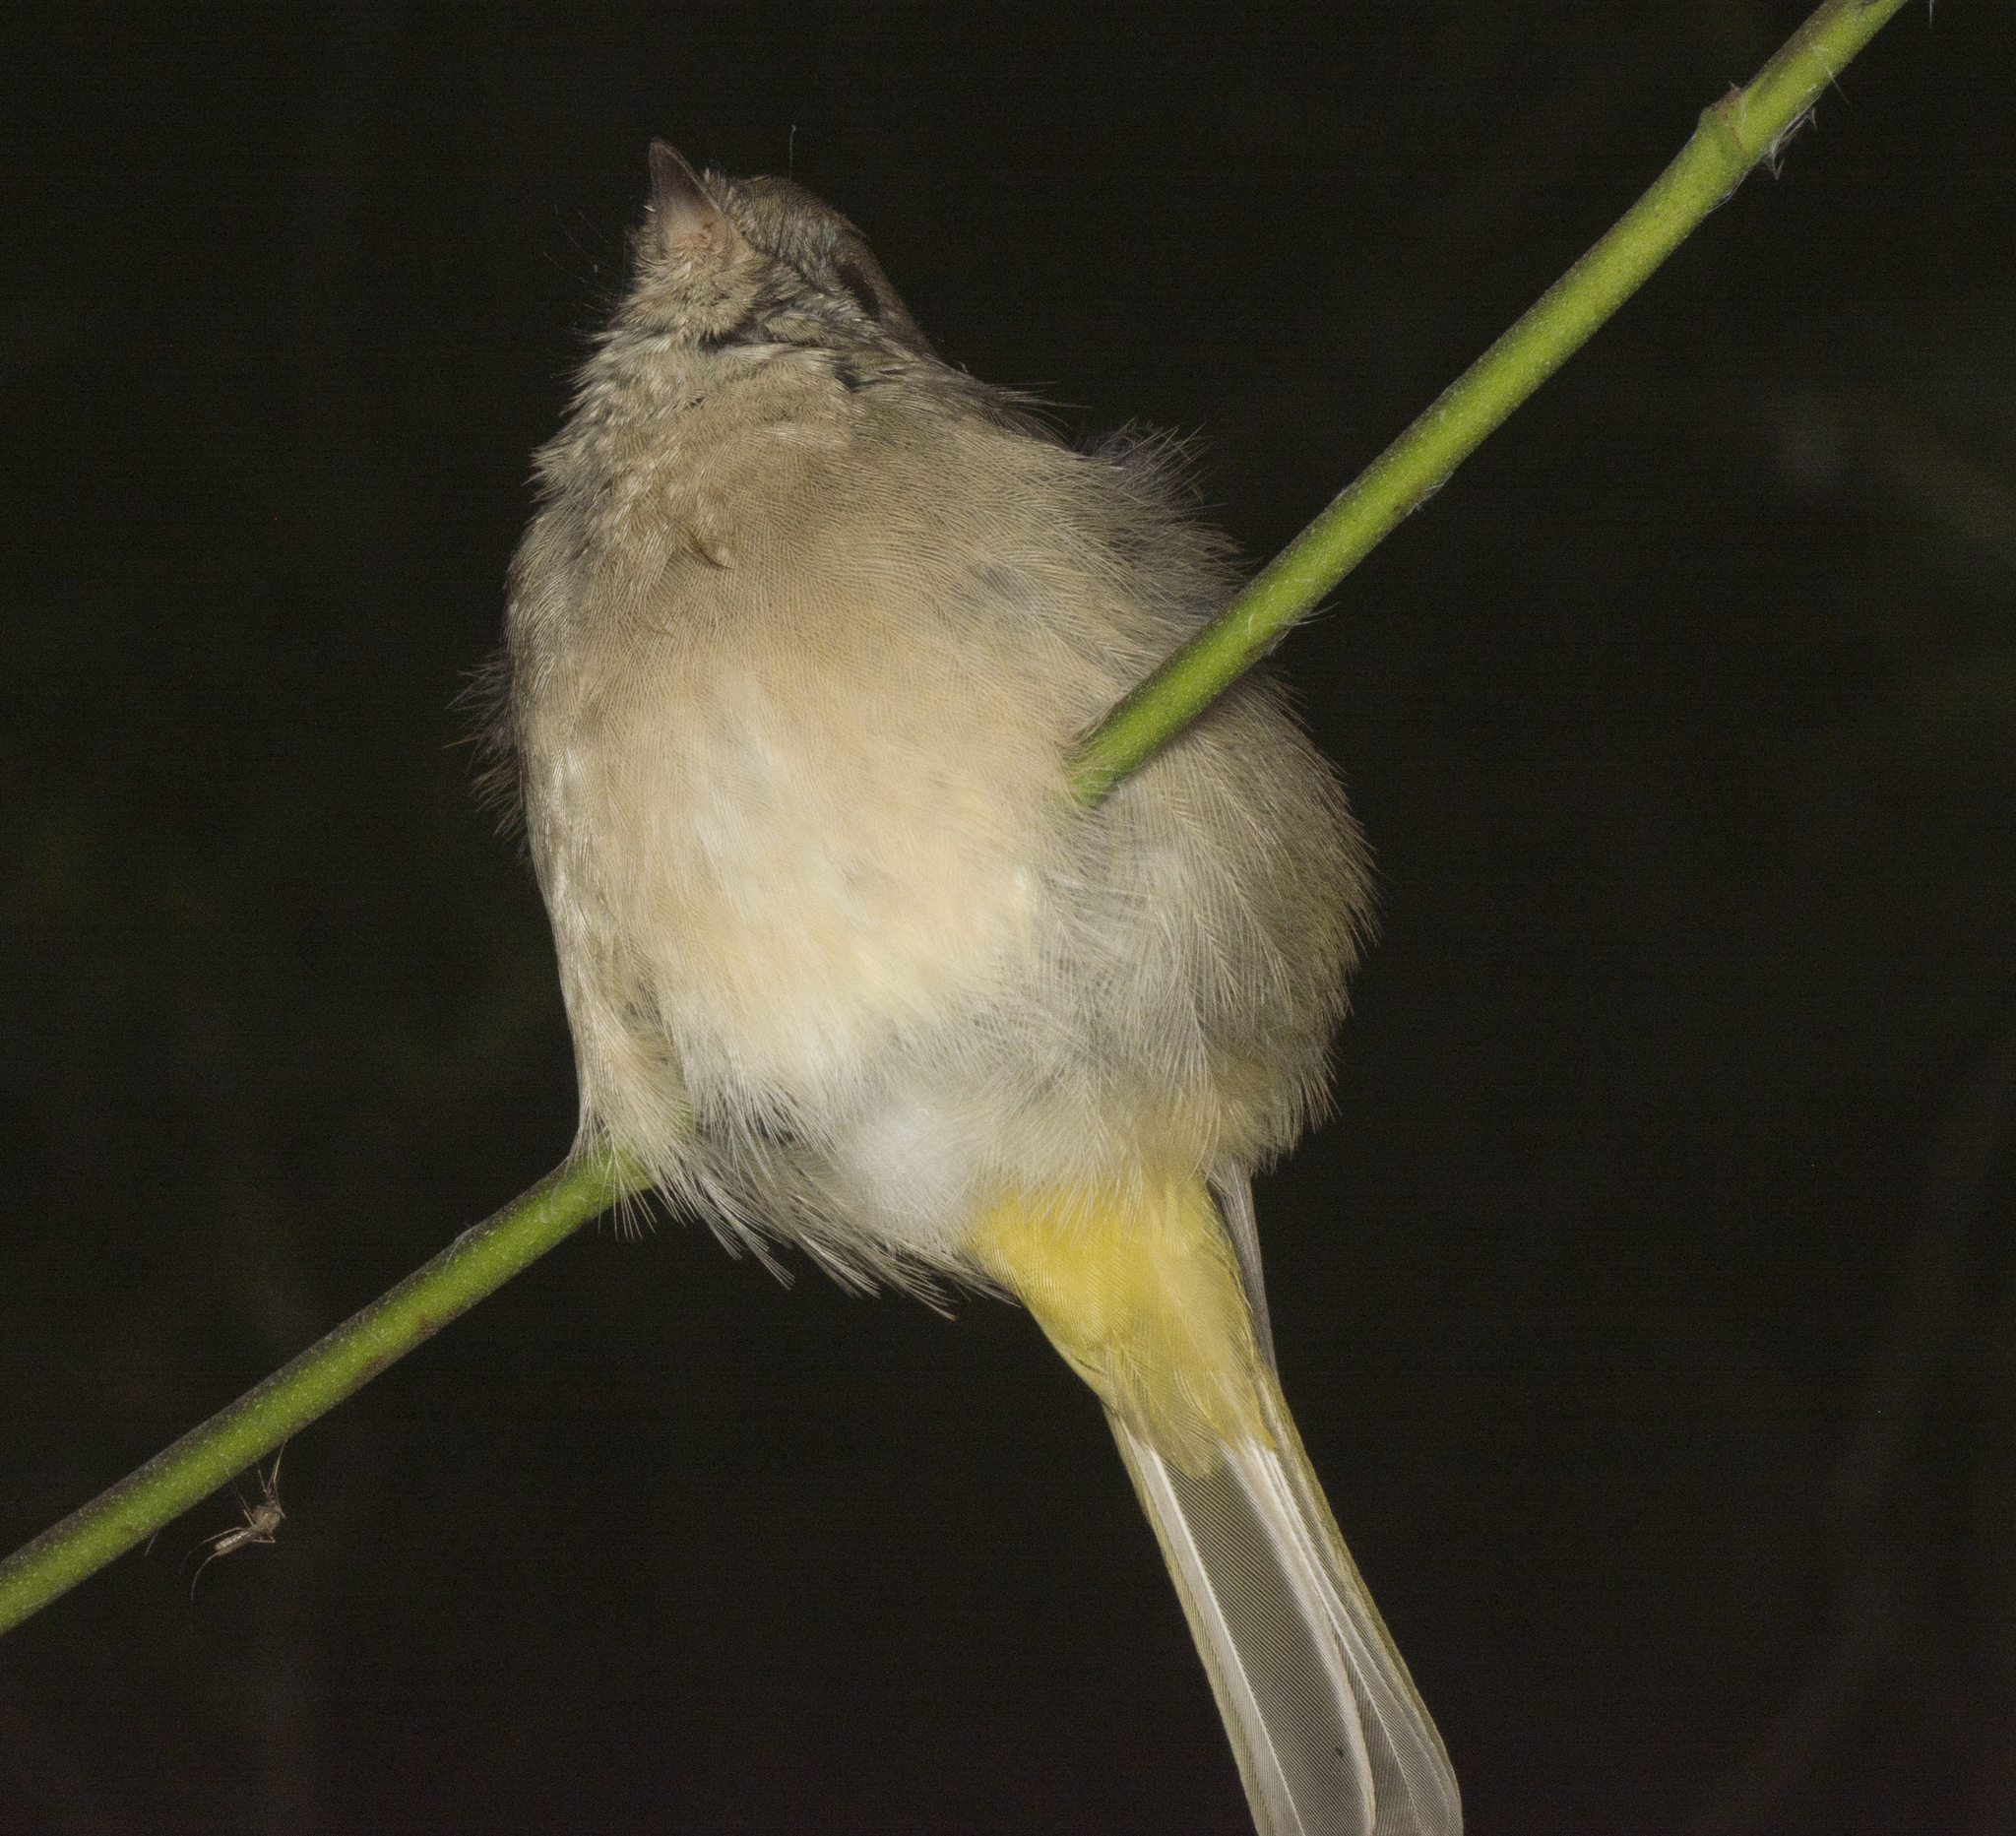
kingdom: Animalia
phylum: Chordata
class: Aves
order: Passeriformes
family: Pachycephalidae
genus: Pachycephala
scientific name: Pachycephala pectoralis
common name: Australian golden whistler
